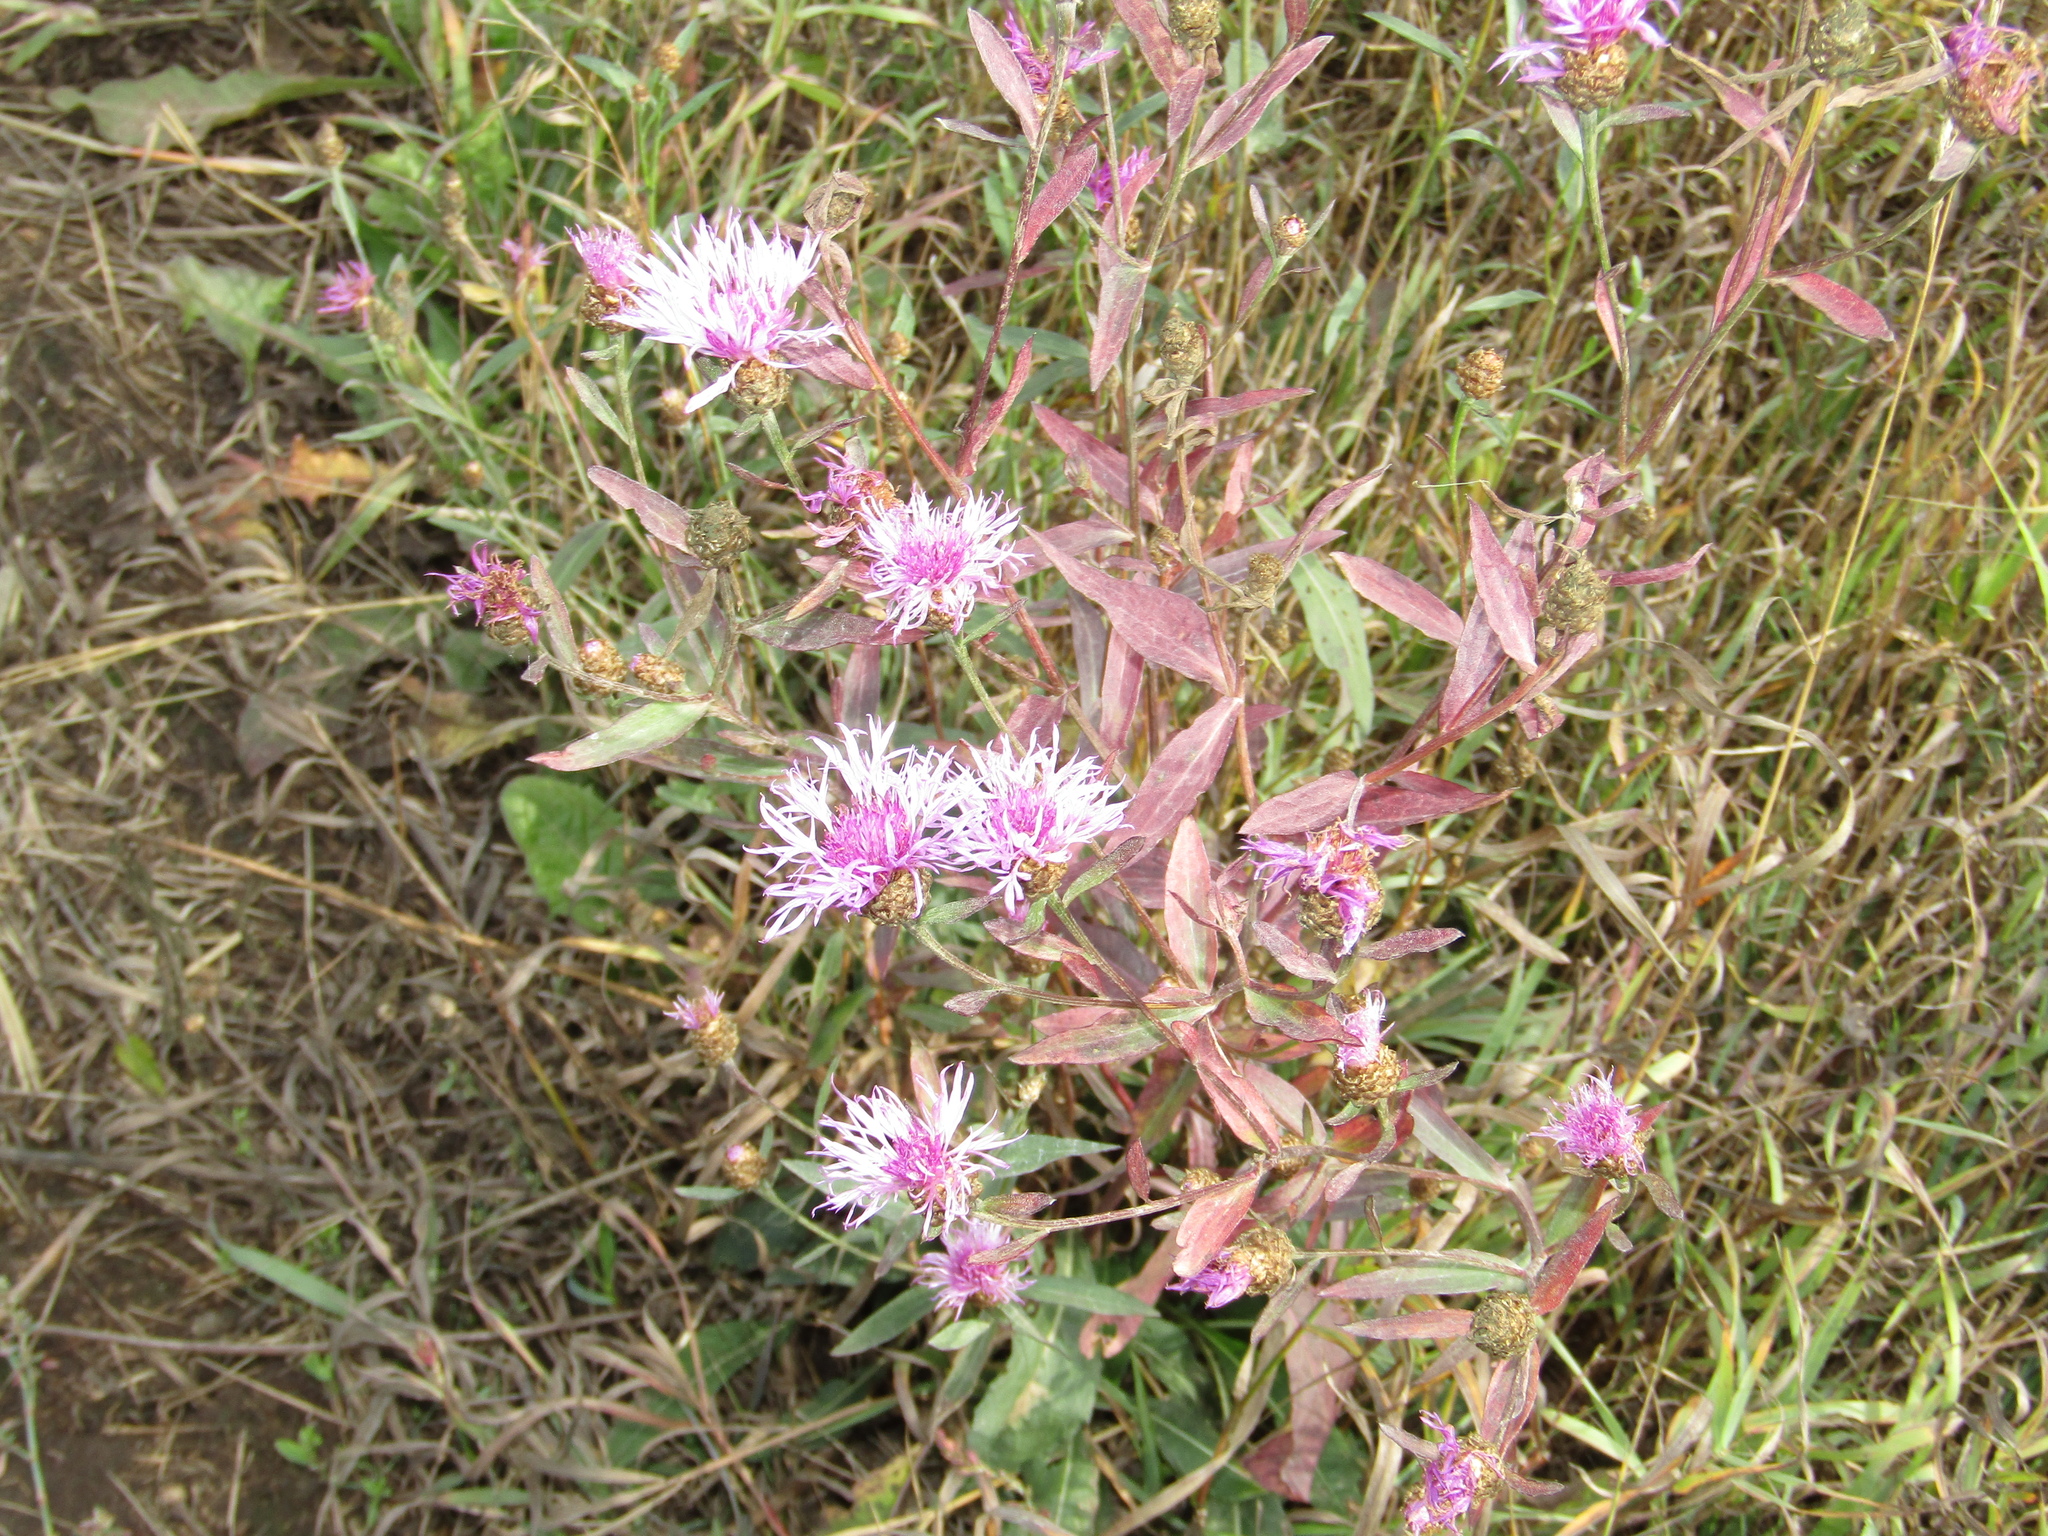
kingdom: Plantae
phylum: Tracheophyta
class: Magnoliopsida
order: Asterales
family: Asteraceae
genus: Centaurea
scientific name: Centaurea jacea
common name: Brown knapweed
